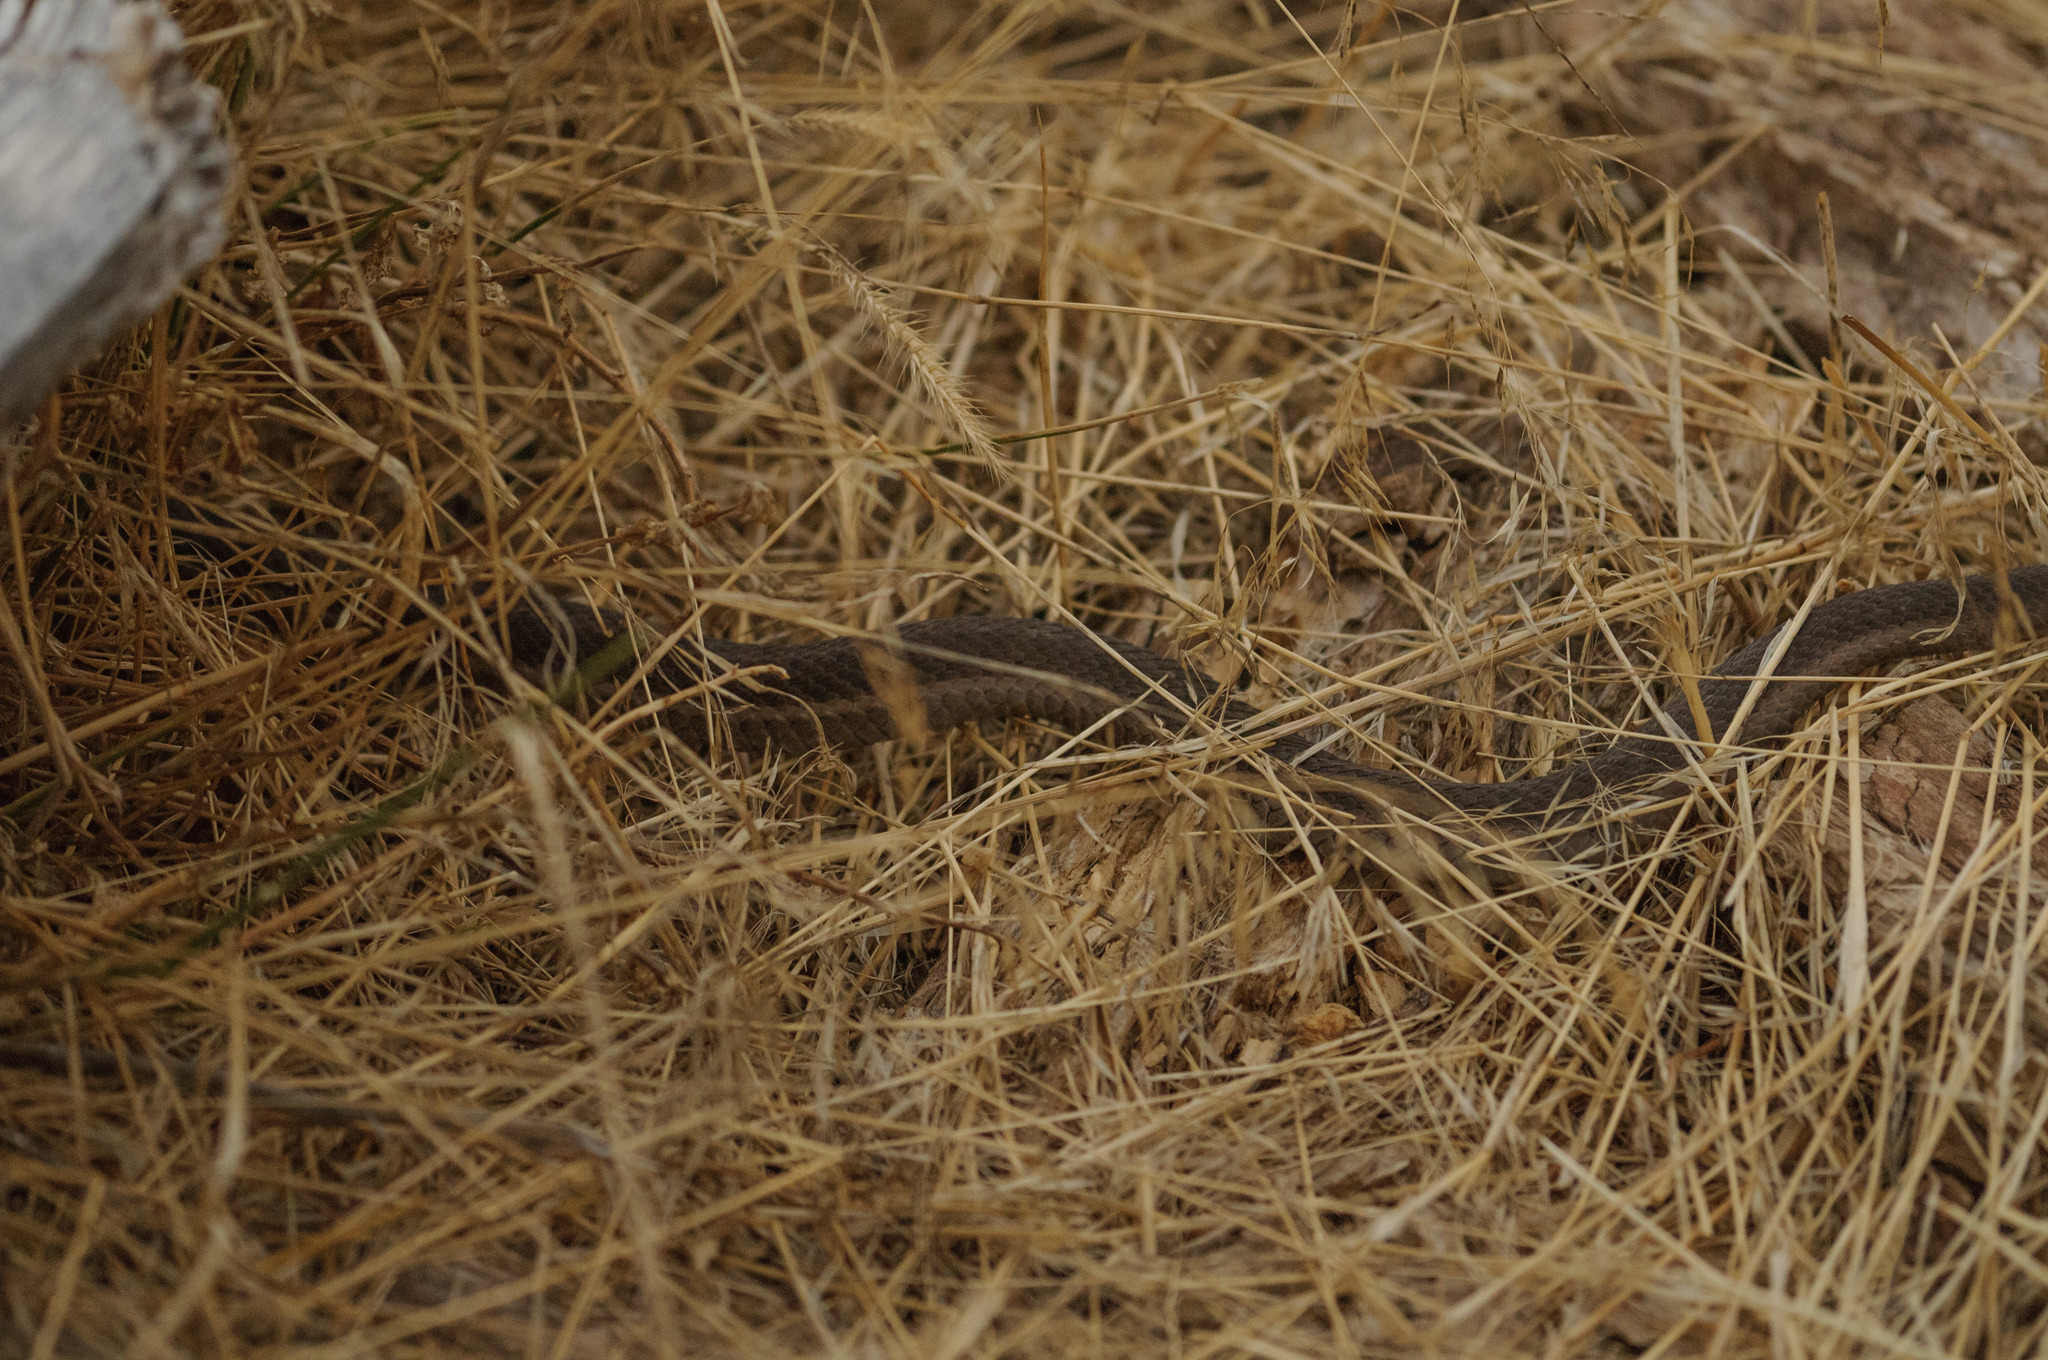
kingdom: Animalia
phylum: Chordata
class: Squamata
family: Colubridae
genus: Thamnophis
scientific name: Thamnophis elegans
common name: Western terrestrial garter snake
